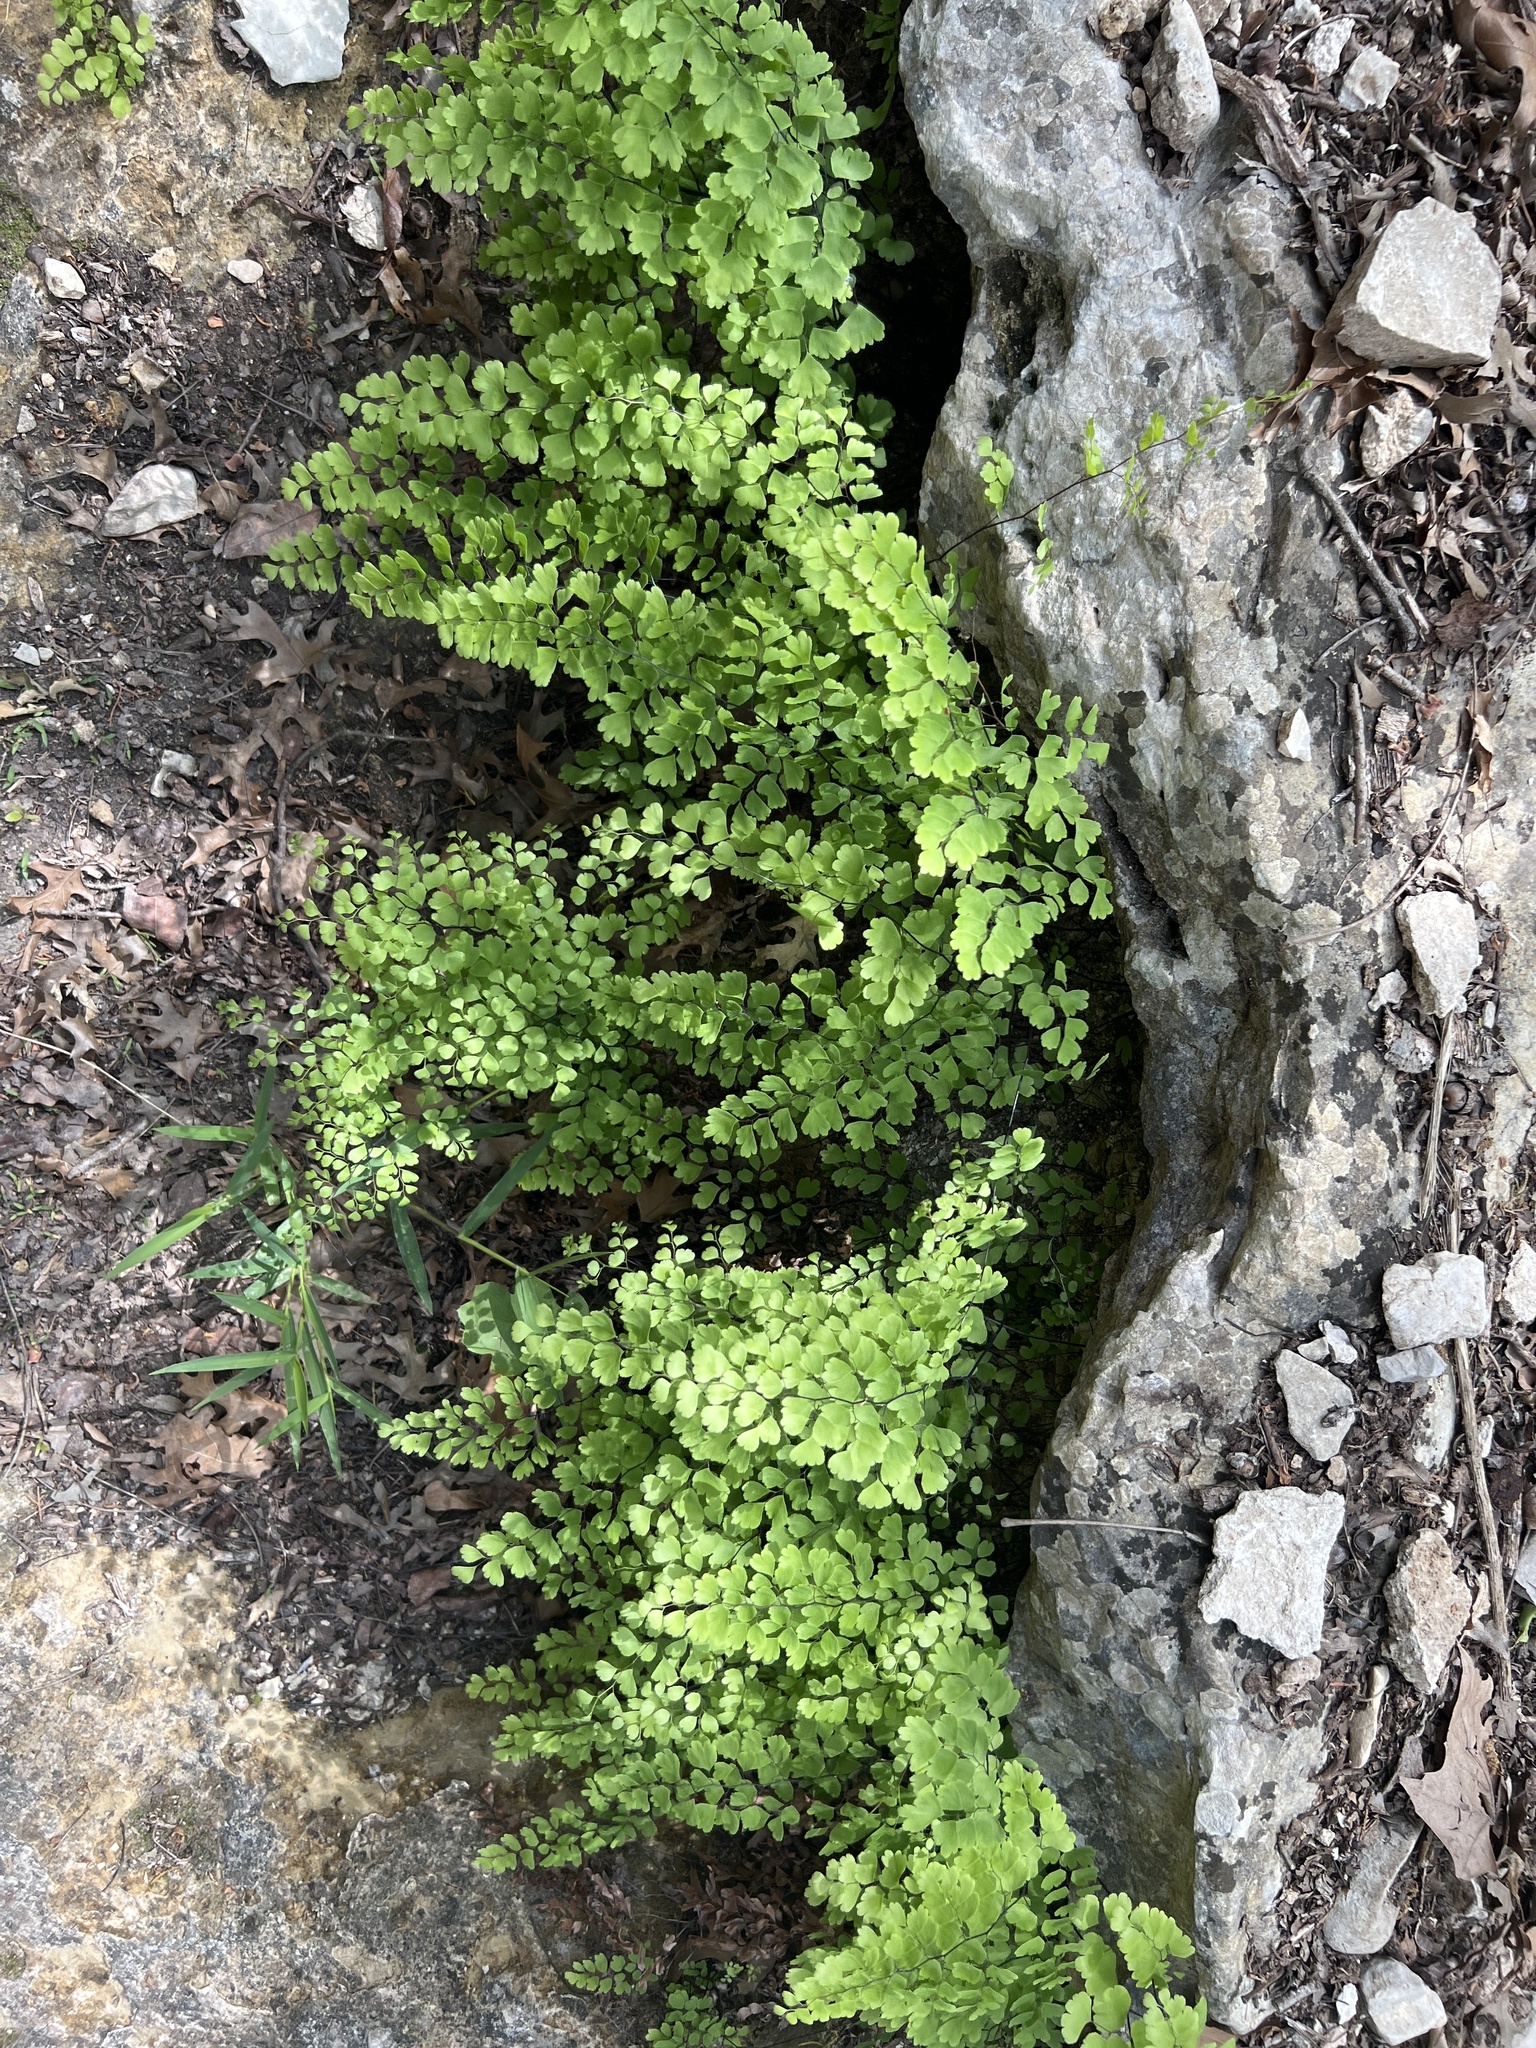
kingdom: Plantae
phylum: Tracheophyta
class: Polypodiopsida
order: Polypodiales
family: Pteridaceae
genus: Adiantum
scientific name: Adiantum capillus-veneris
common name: Maidenhair fern
